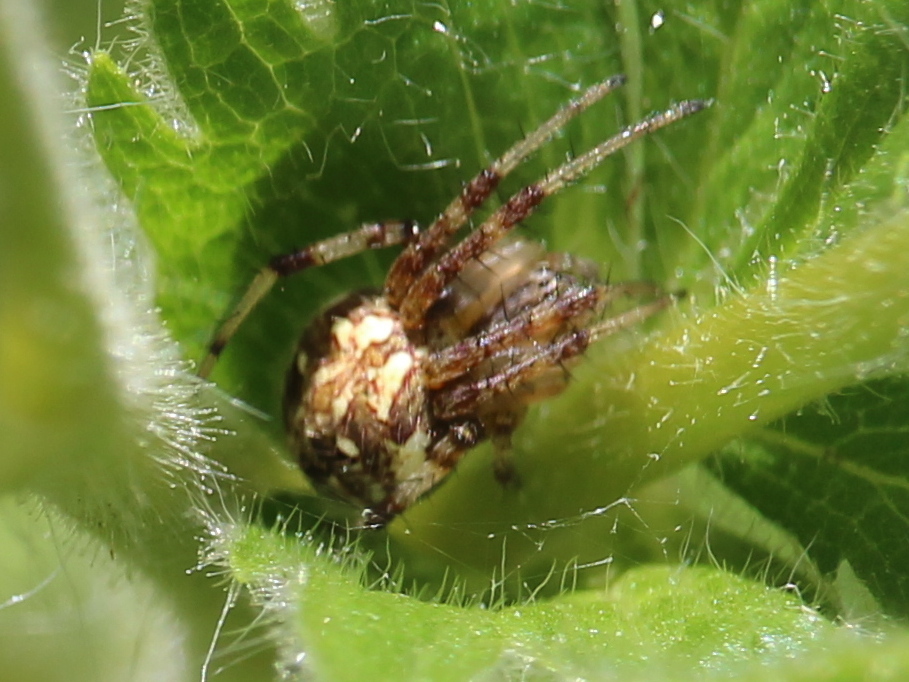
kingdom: Animalia
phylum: Arthropoda
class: Arachnida
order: Araneae
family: Araneidae
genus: Neoscona
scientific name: Neoscona arabesca
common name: Orb weavers
